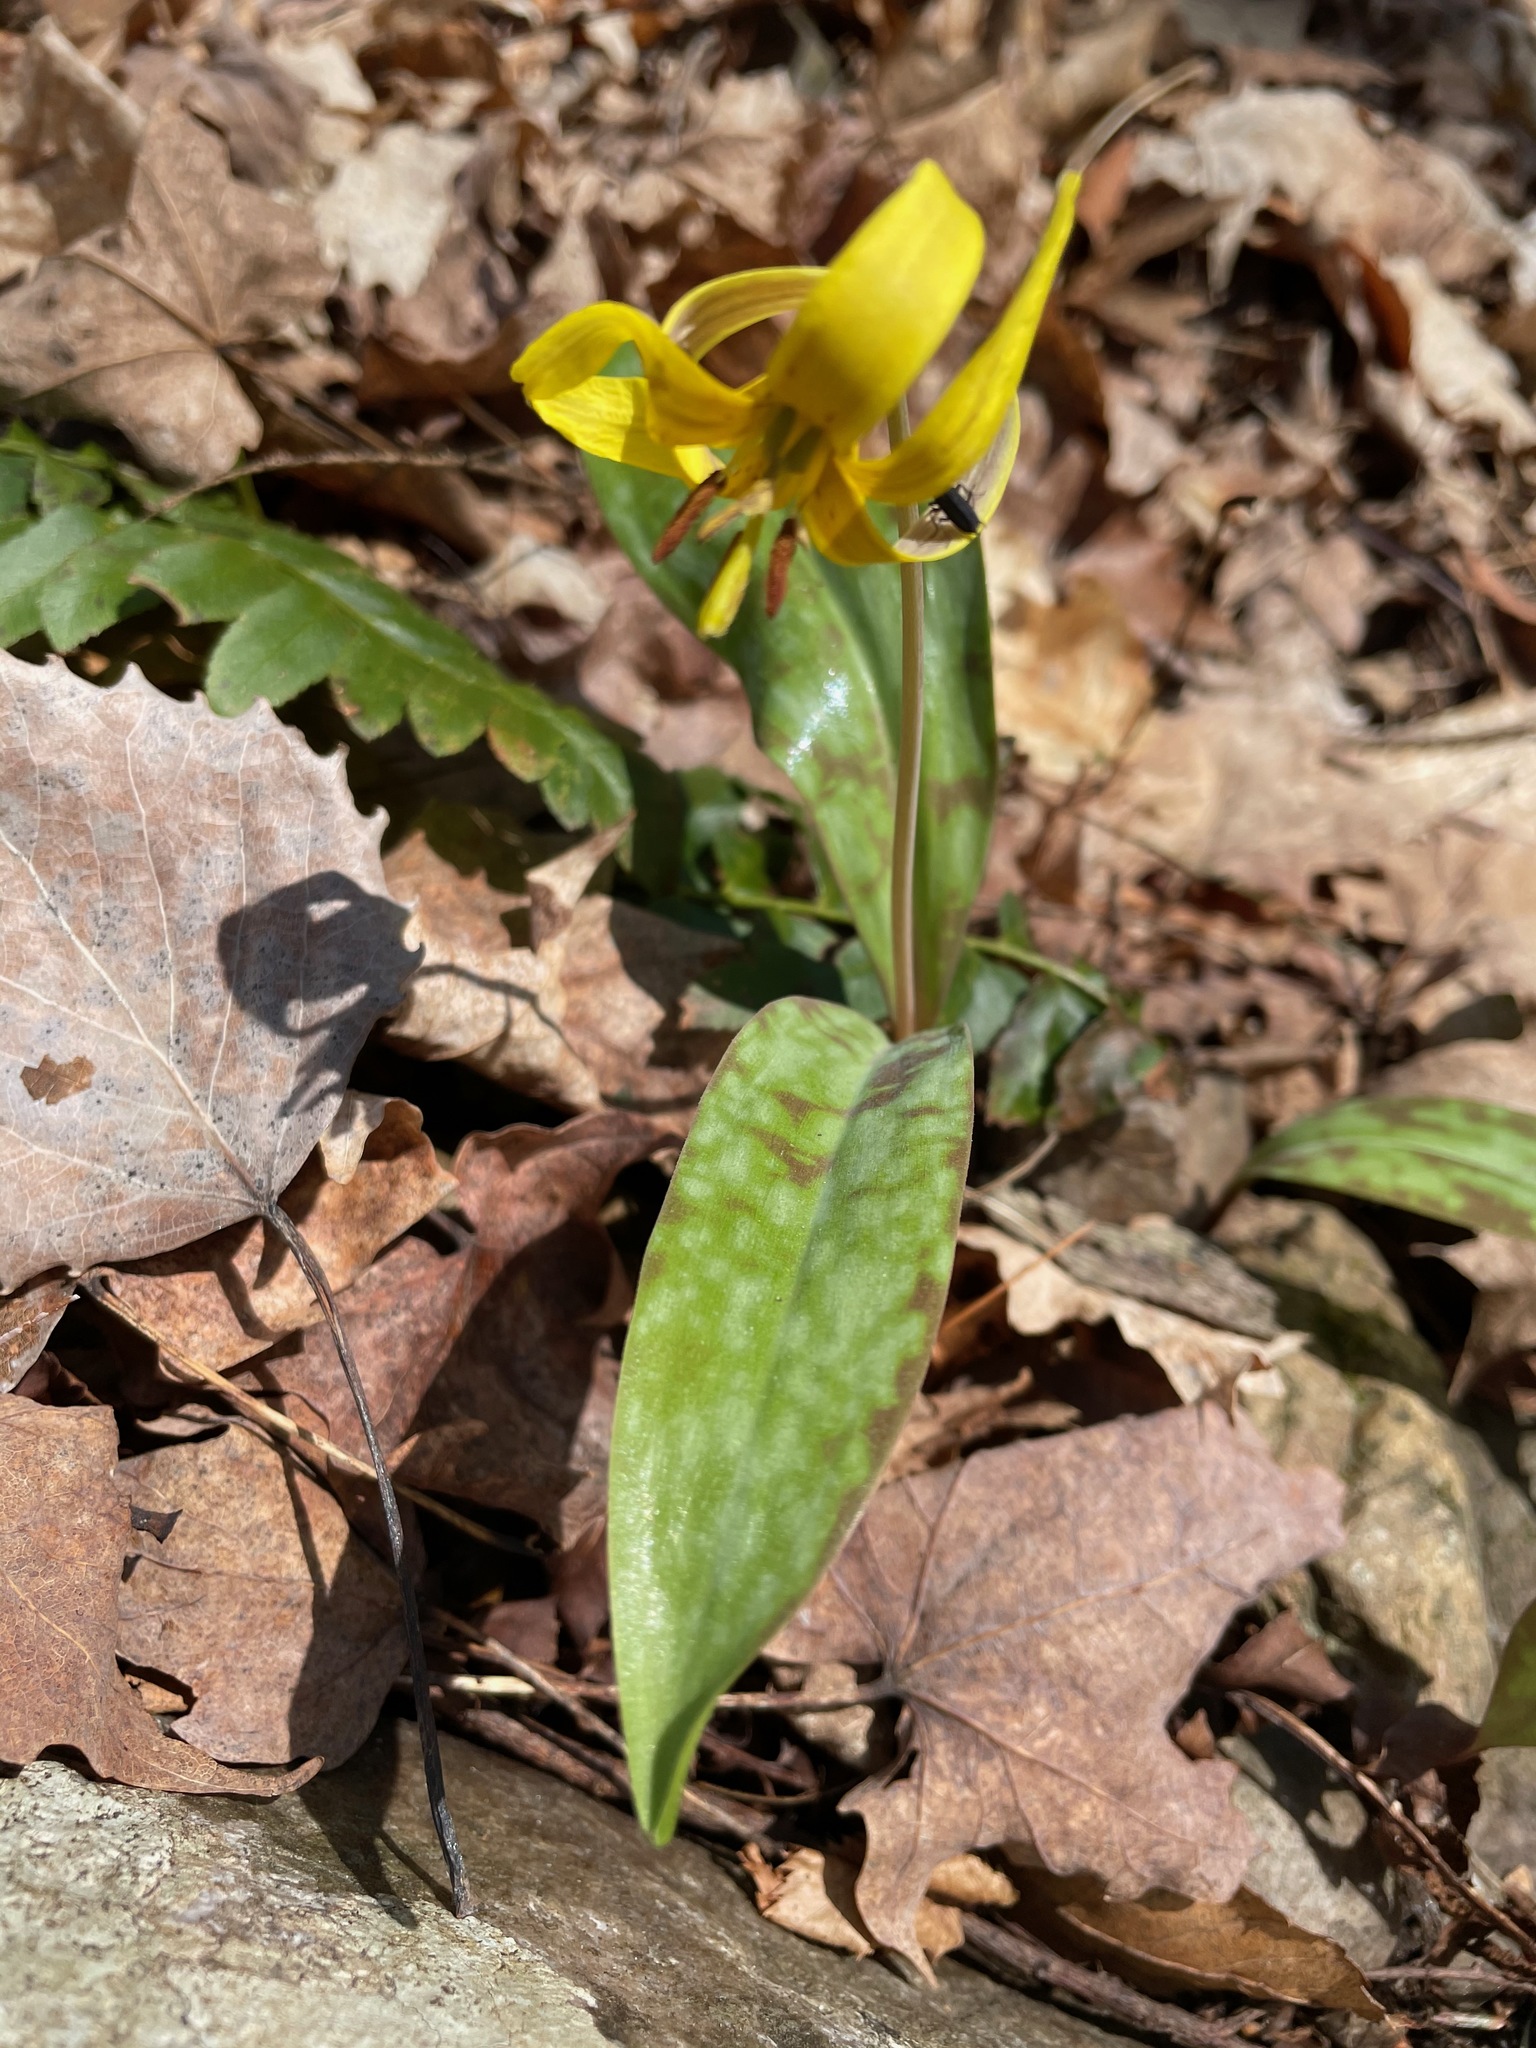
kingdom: Plantae
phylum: Tracheophyta
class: Liliopsida
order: Liliales
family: Liliaceae
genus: Erythronium
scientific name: Erythronium americanum
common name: Yellow adder's-tongue
